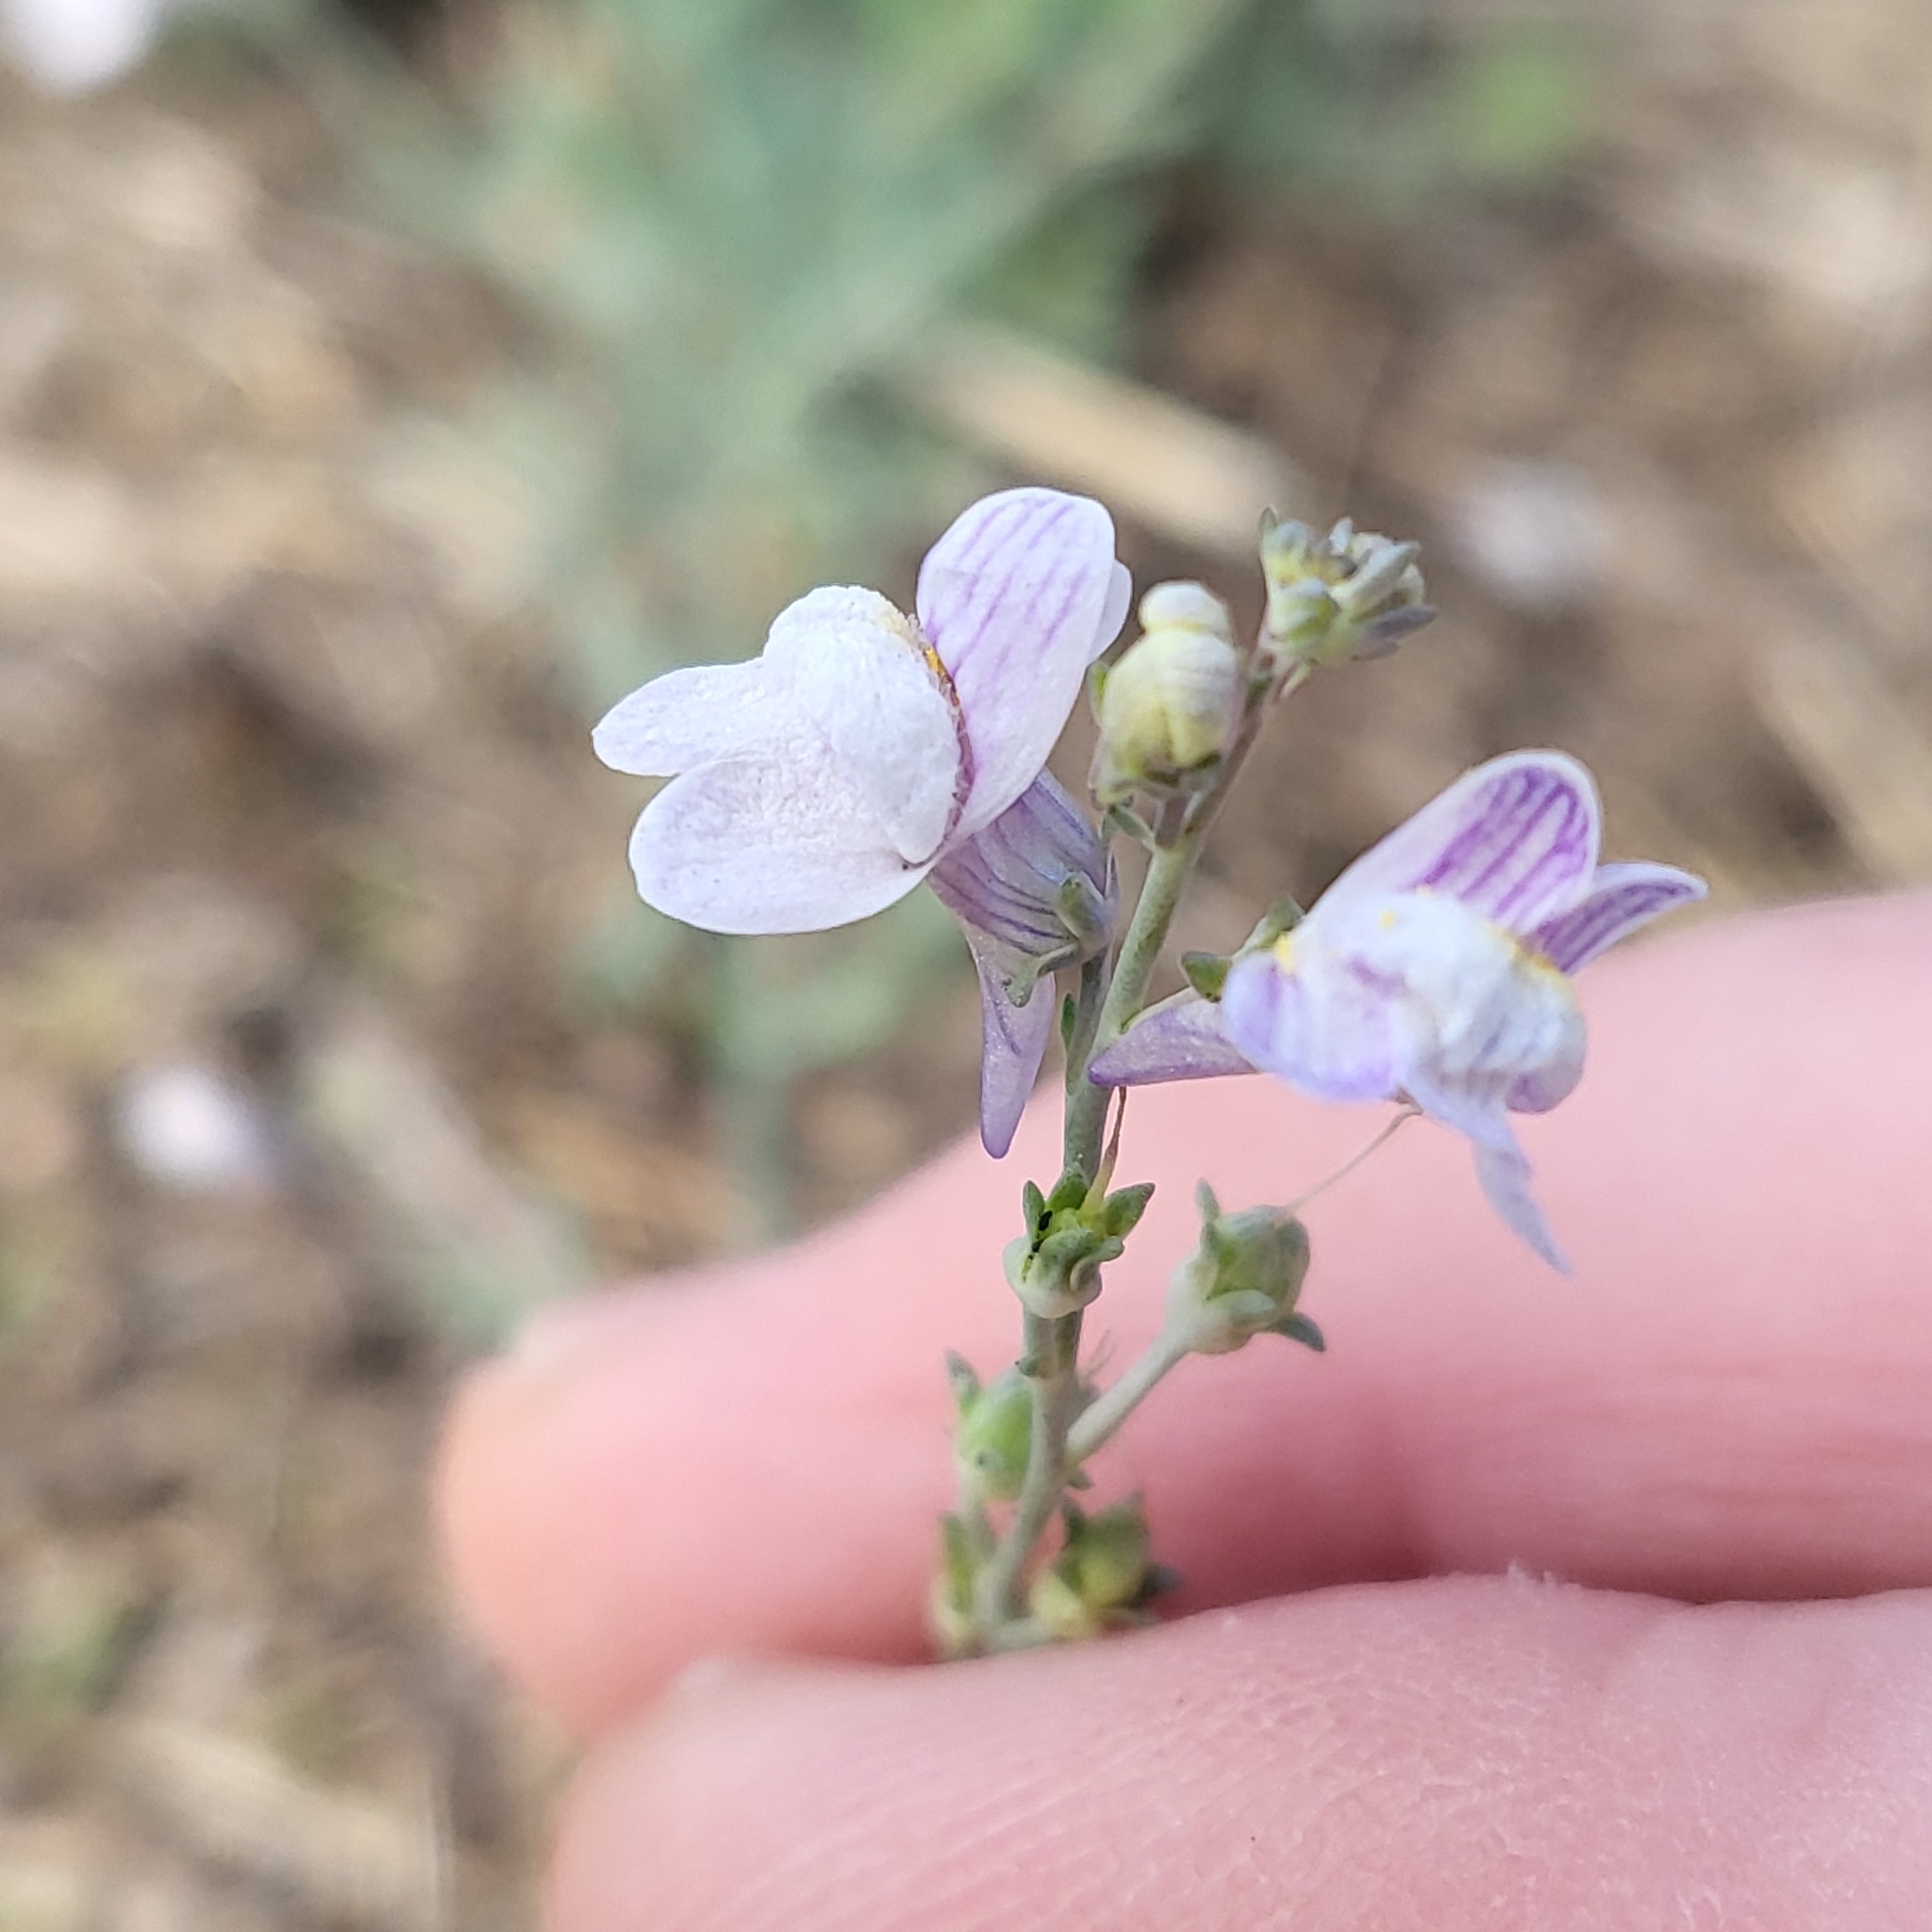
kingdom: Plantae
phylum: Tracheophyta
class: Magnoliopsida
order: Lamiales
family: Plantaginaceae
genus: Linaria
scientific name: Linaria repens
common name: Pale toadflax
